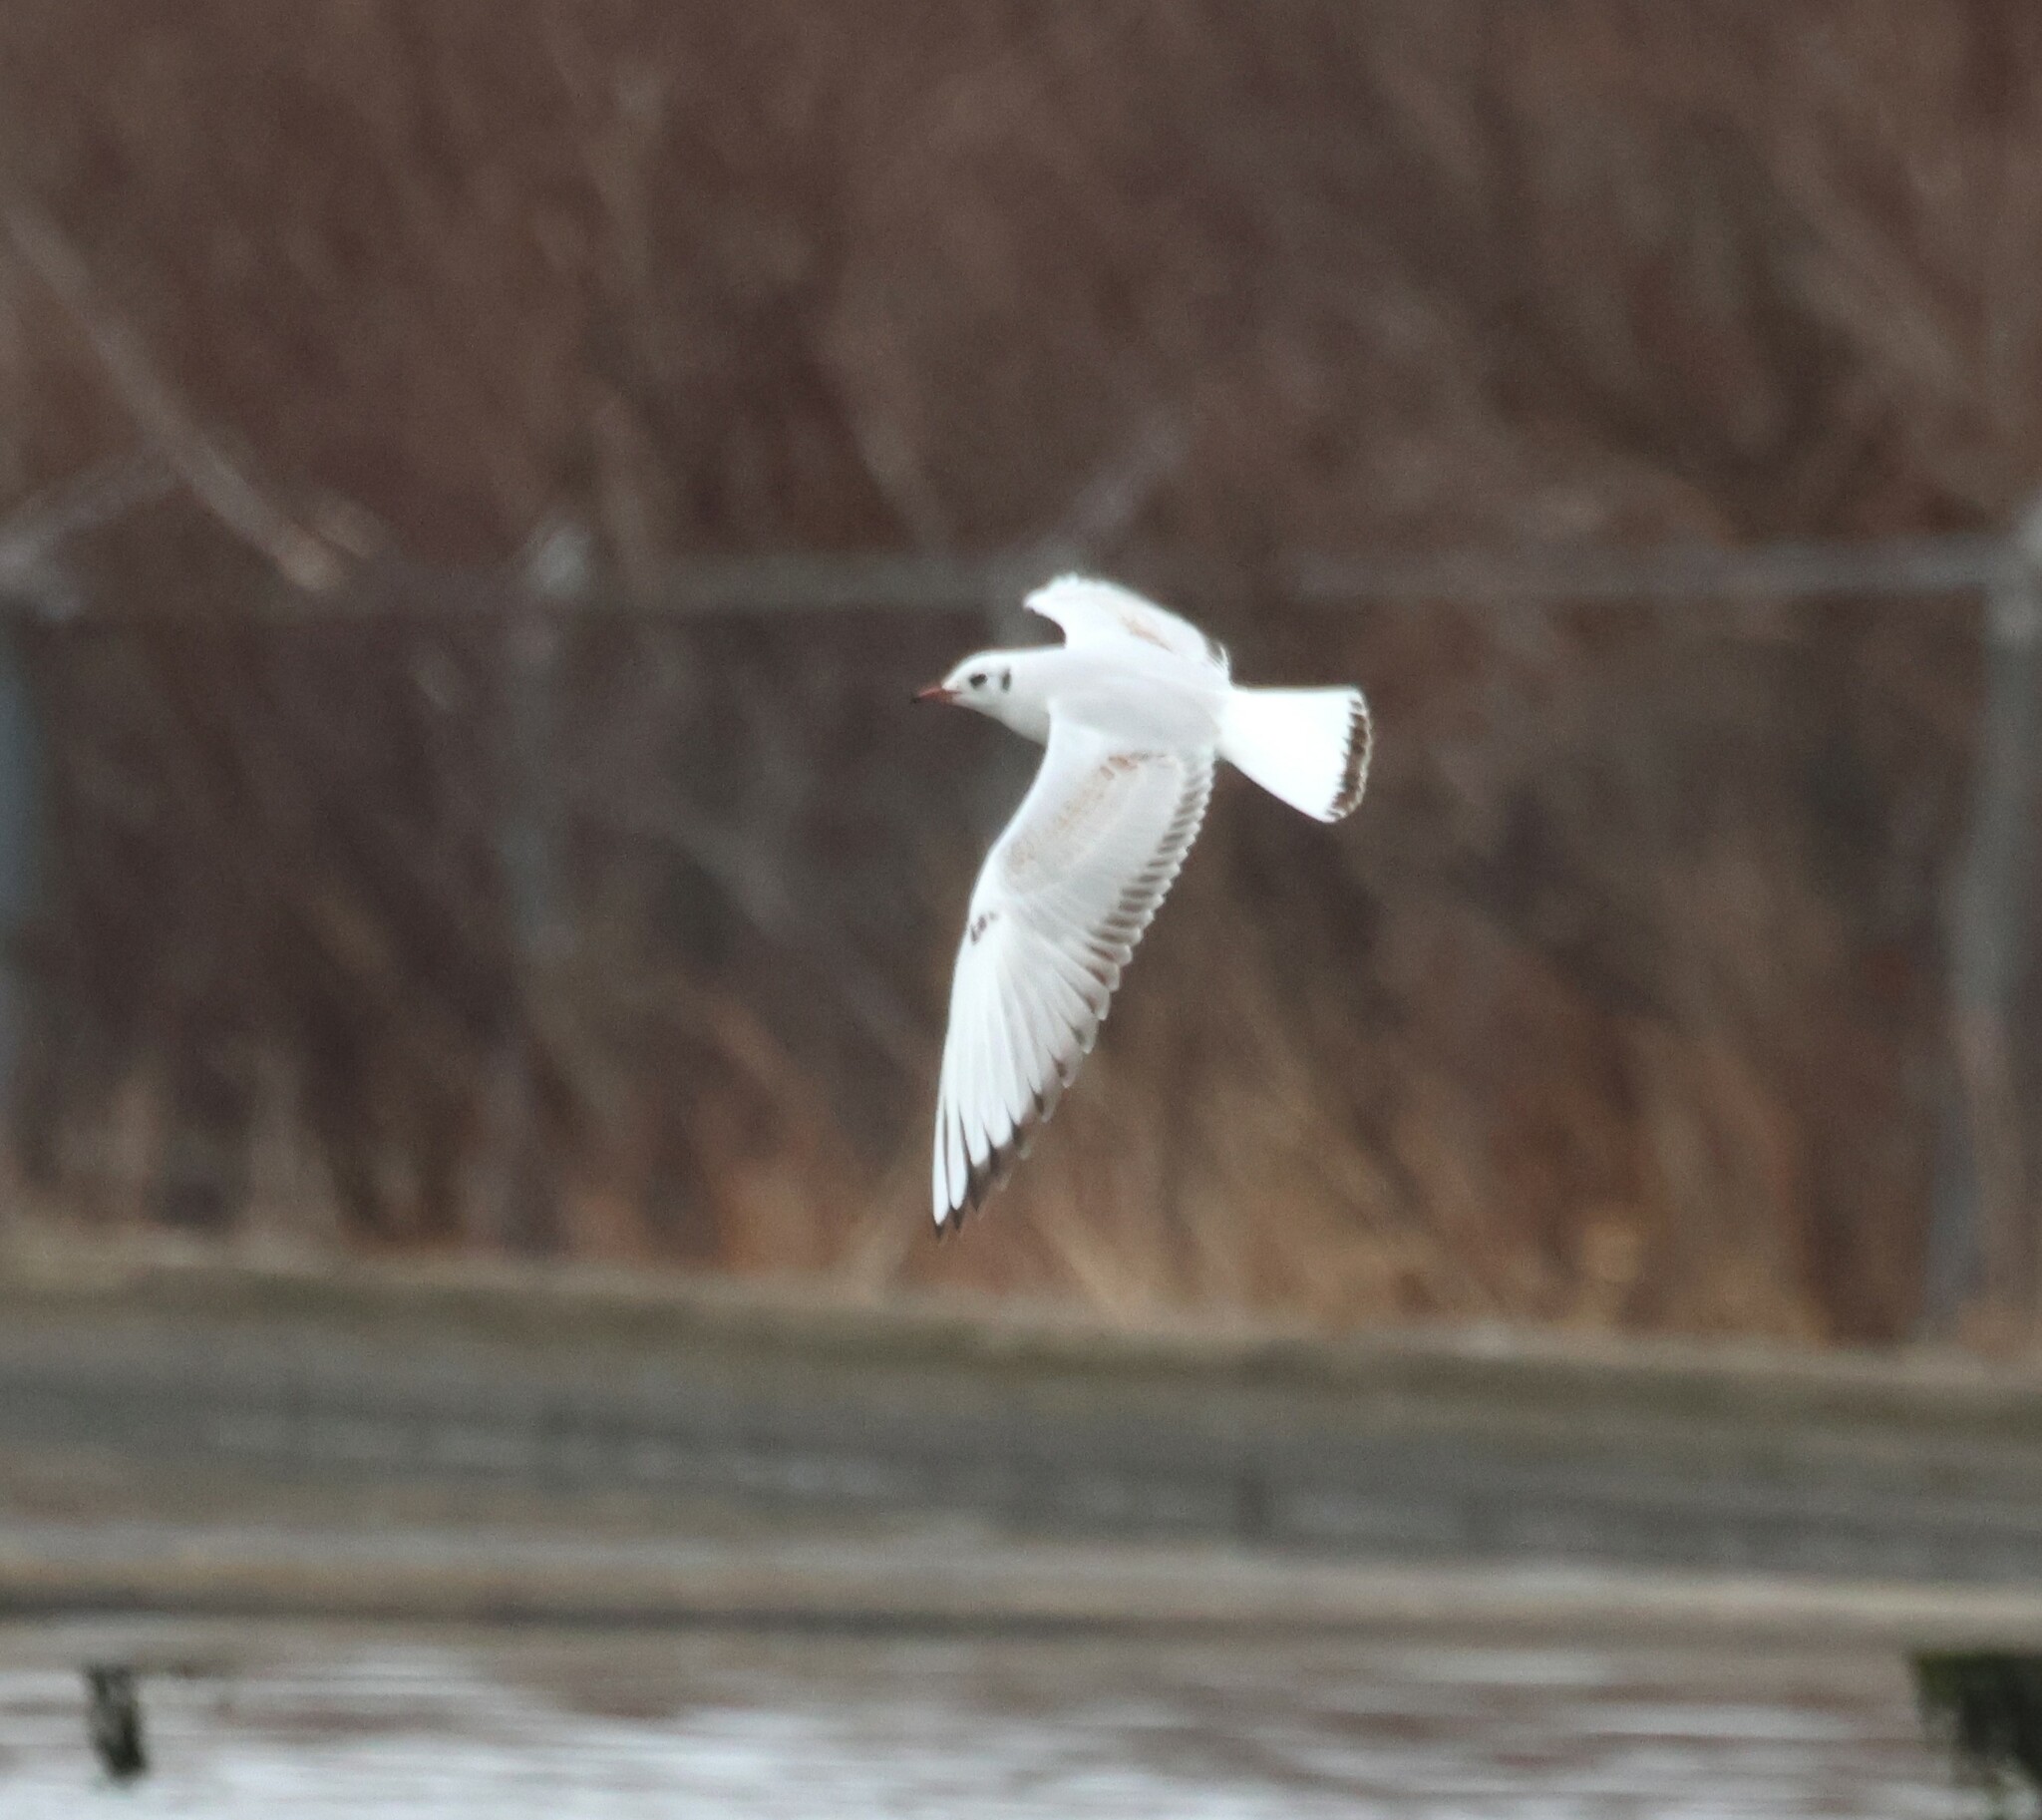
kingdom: Animalia
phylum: Chordata
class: Aves
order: Charadriiformes
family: Laridae
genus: Chroicocephalus
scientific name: Chroicocephalus ridibundus
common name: Black-headed gull
